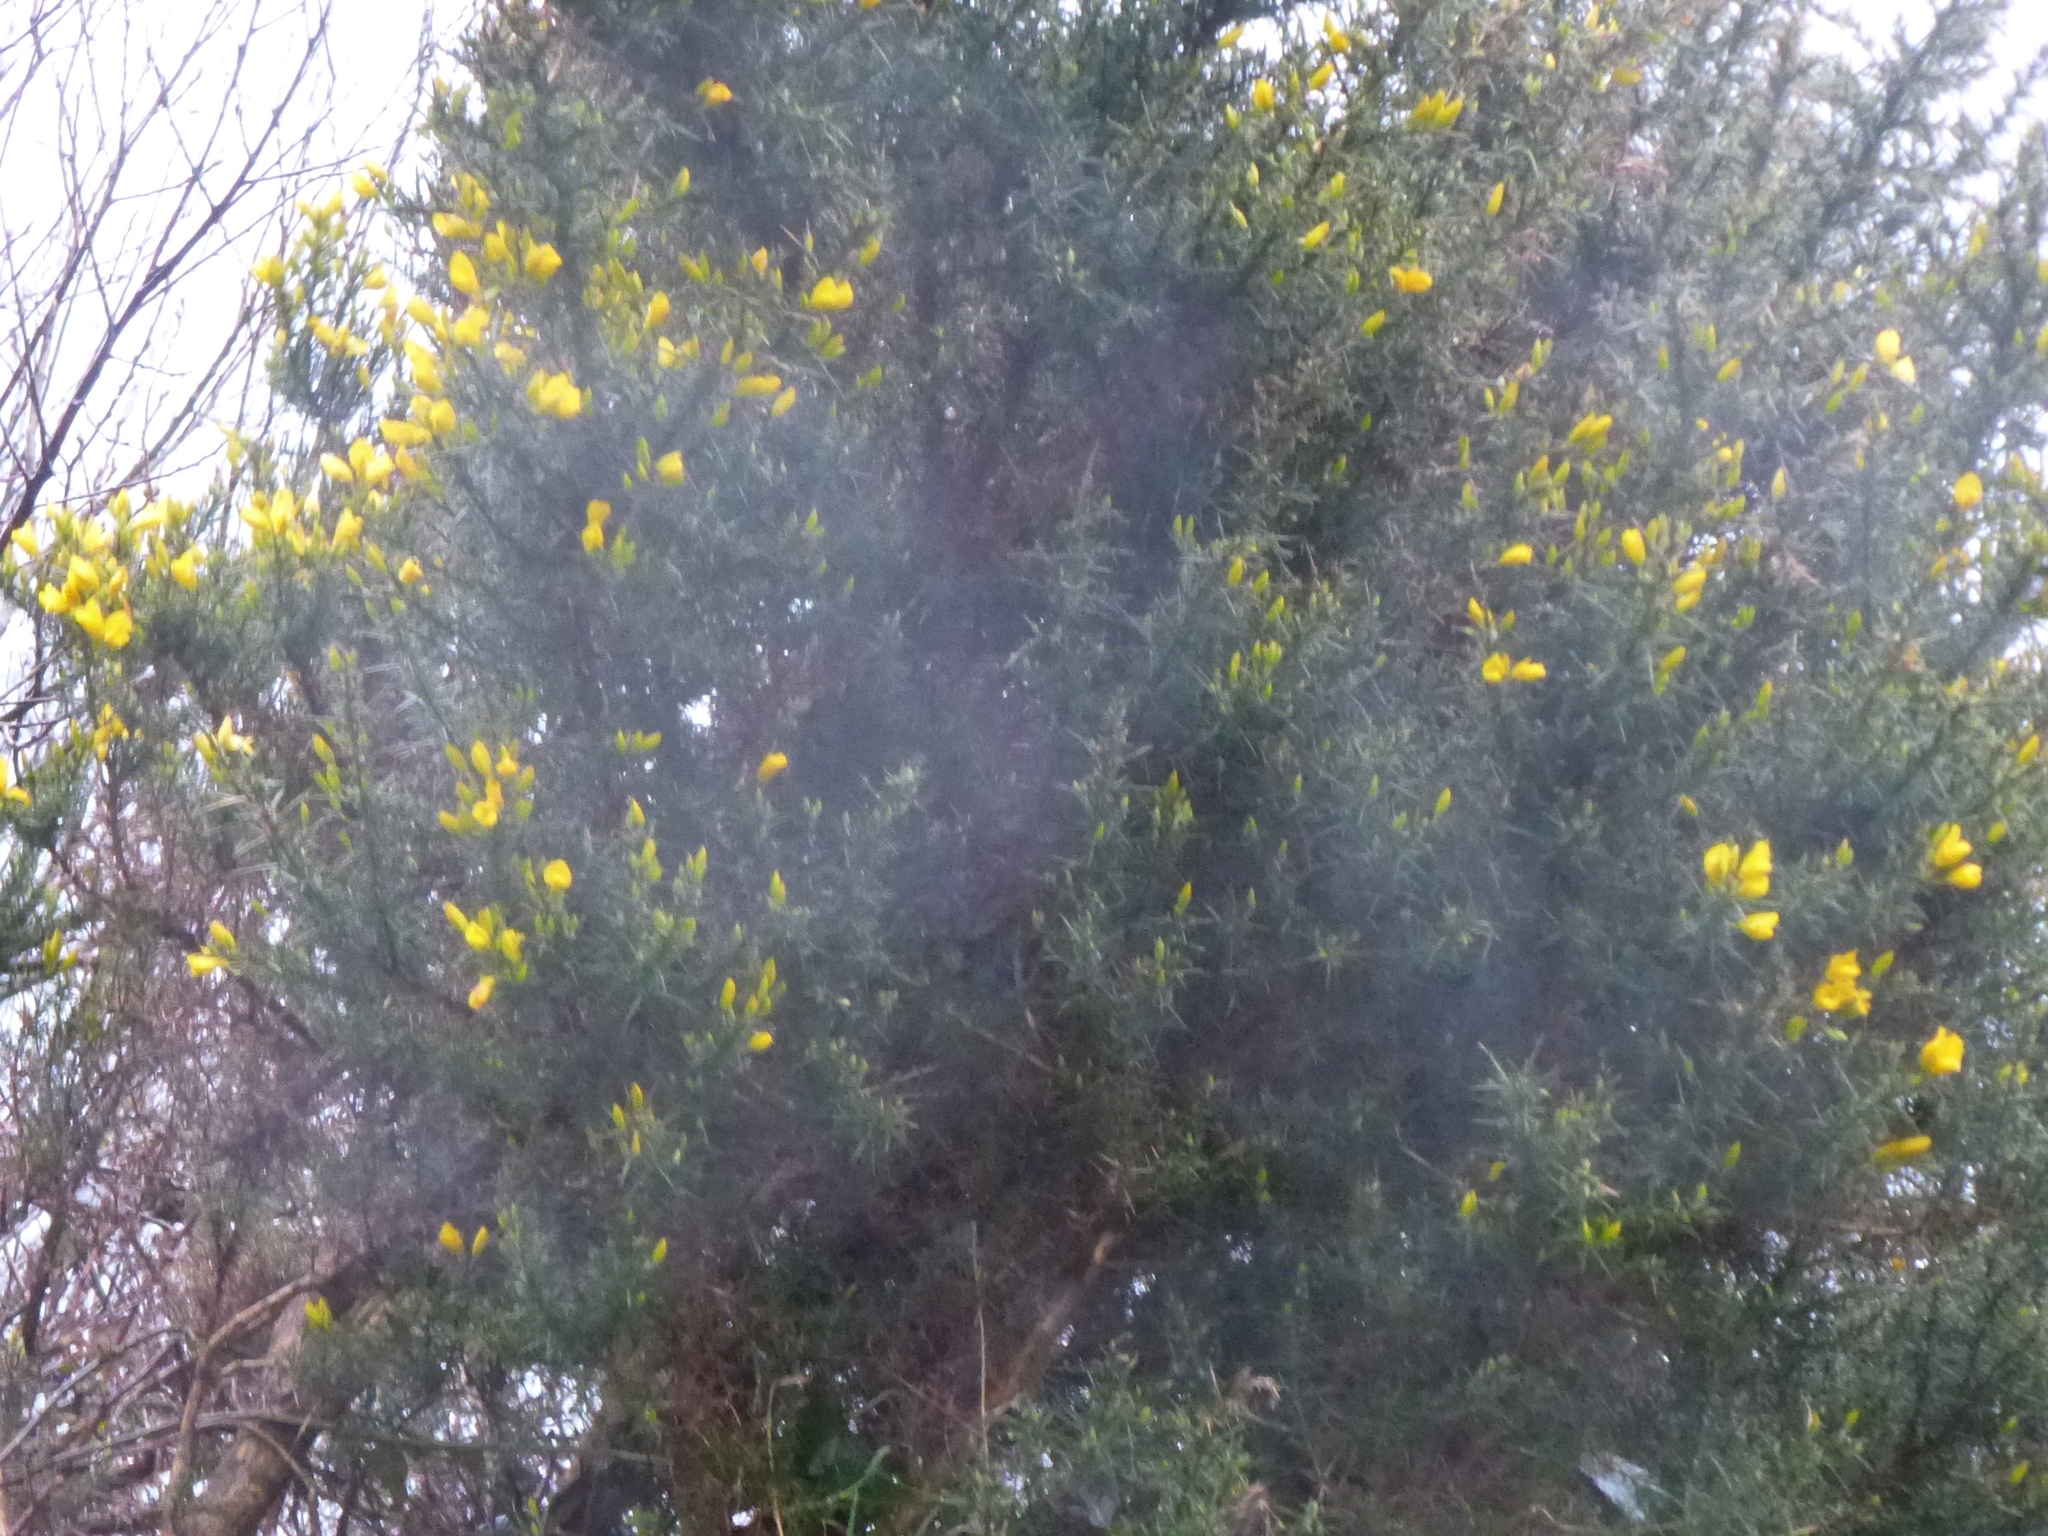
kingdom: Plantae
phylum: Tracheophyta
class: Magnoliopsida
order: Fabales
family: Fabaceae
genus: Ulex
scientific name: Ulex europaeus
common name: Common gorse
